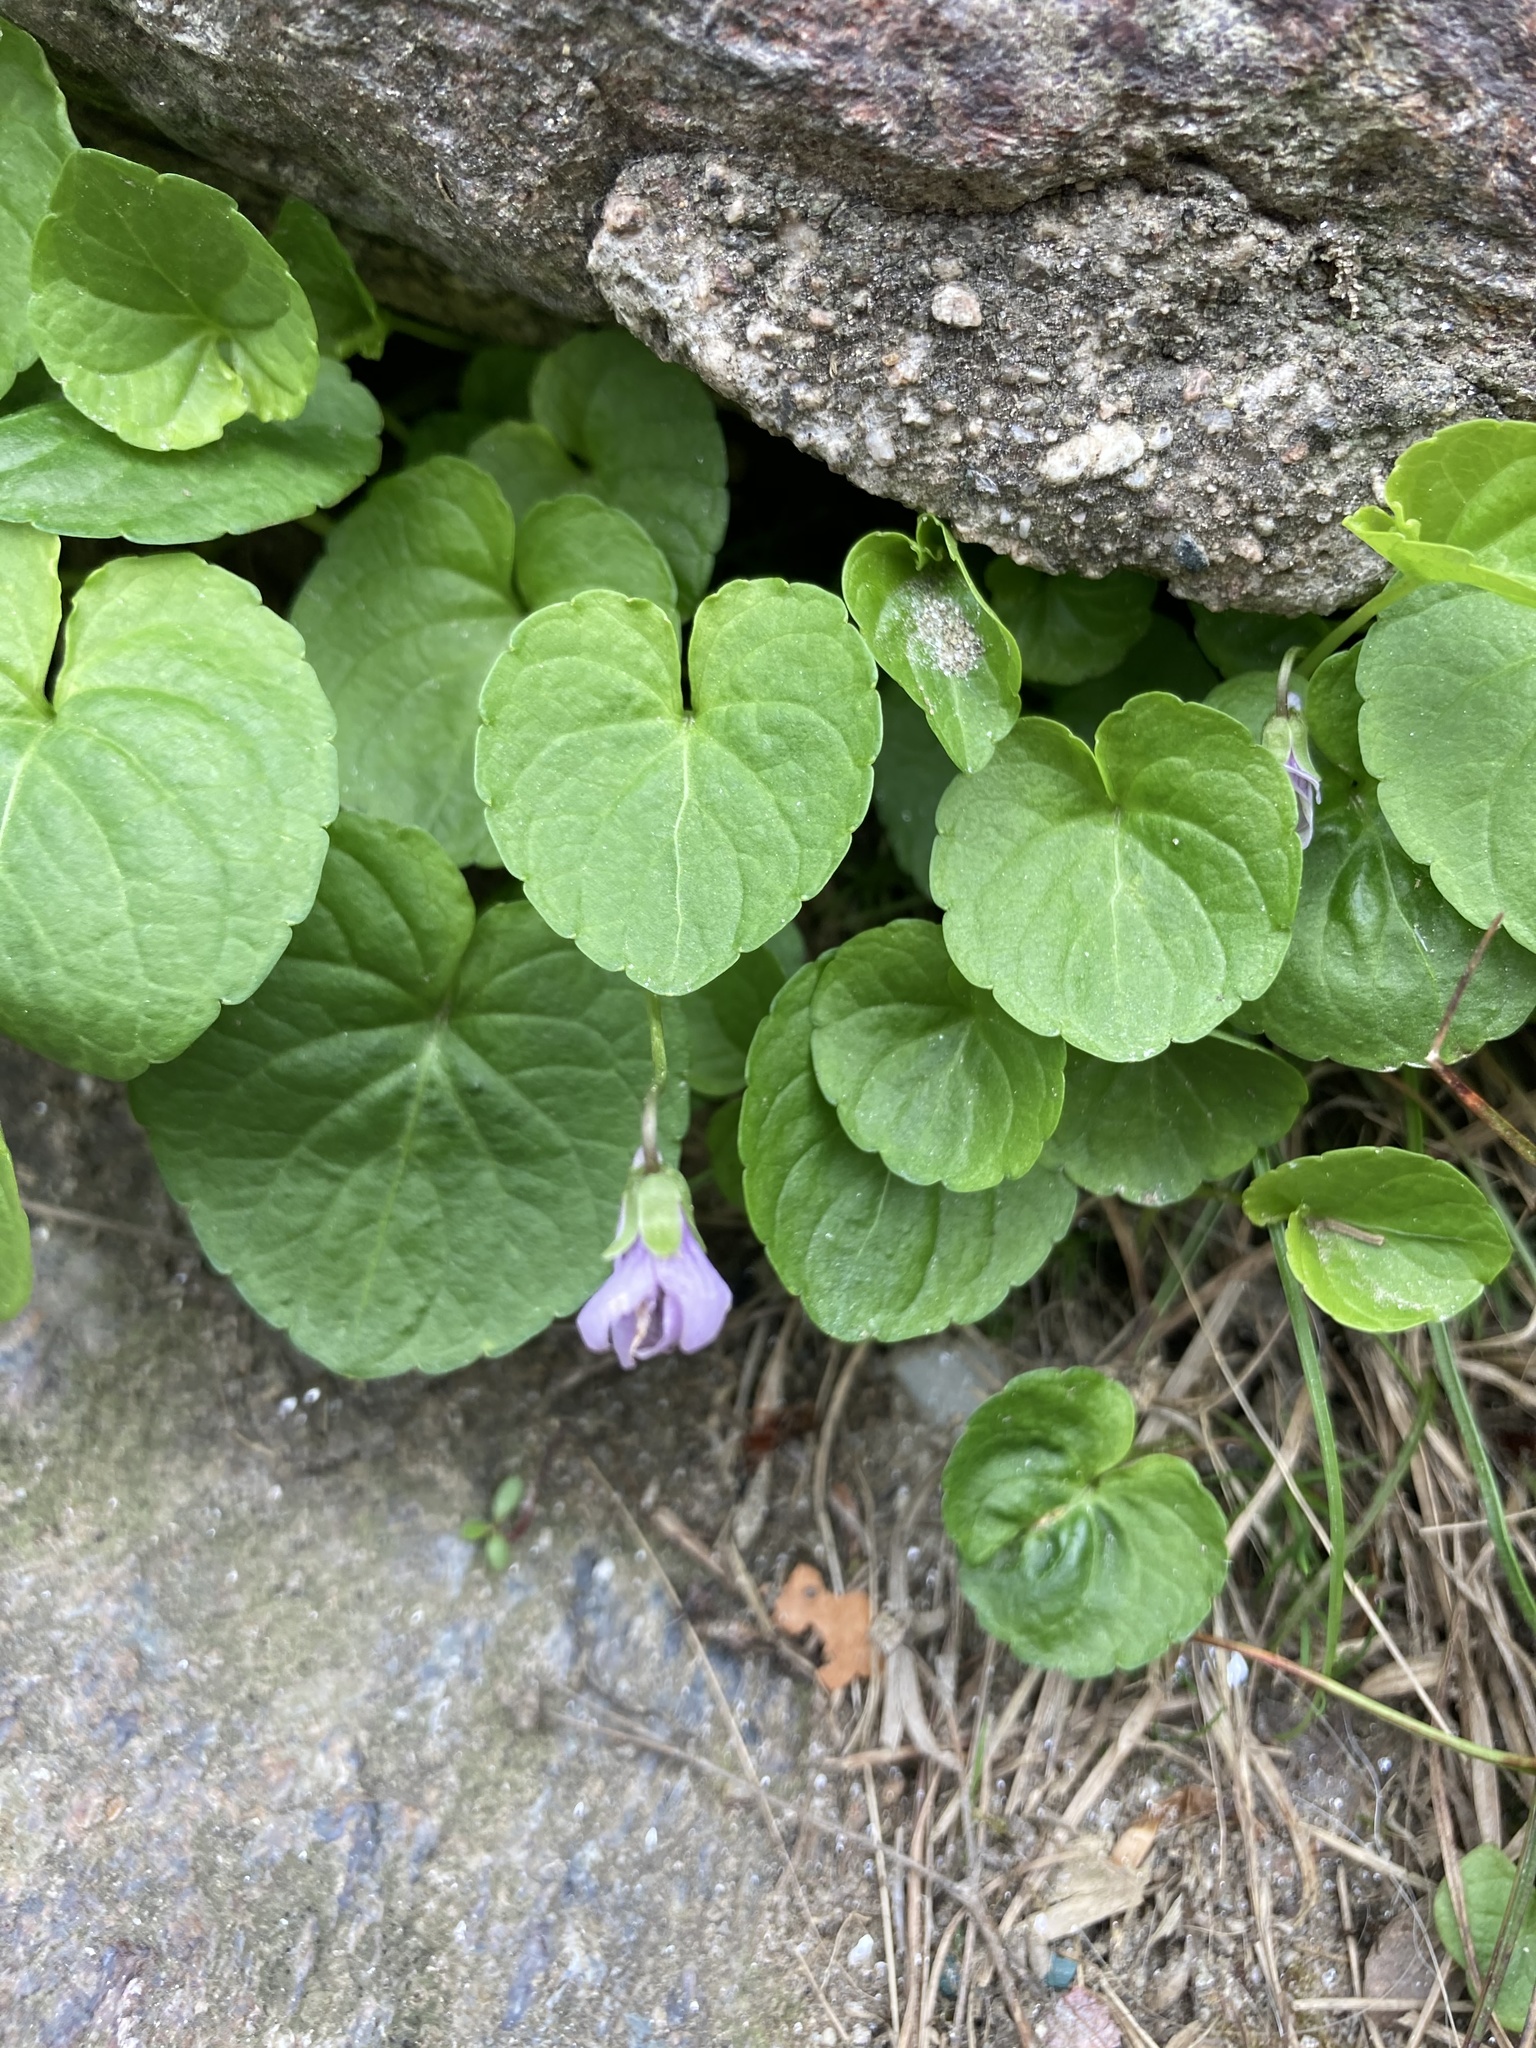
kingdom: Plantae
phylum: Tracheophyta
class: Magnoliopsida
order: Malpighiales
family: Violaceae
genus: Viola
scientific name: Viola palustris
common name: Marsh violet
